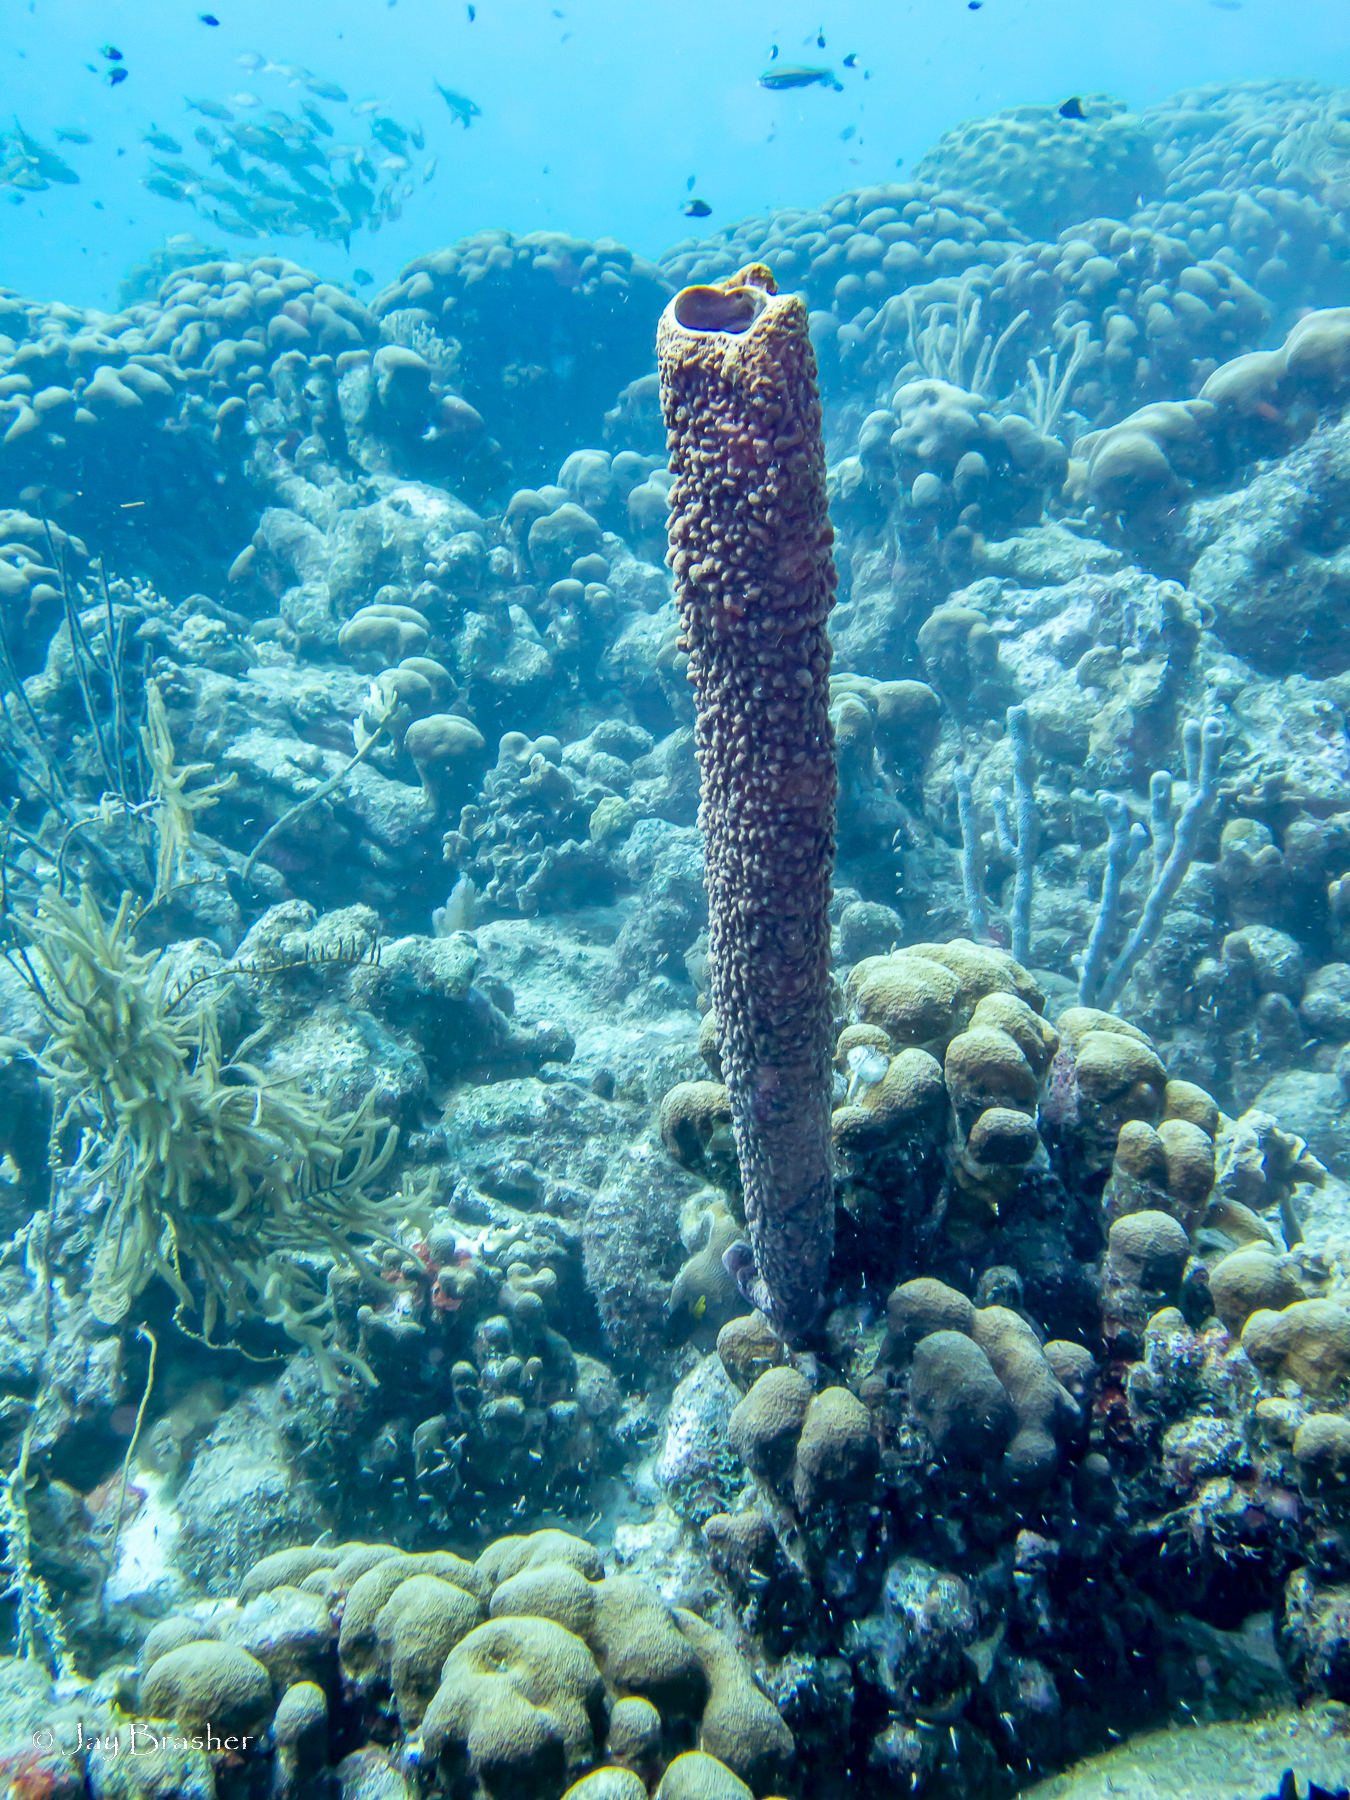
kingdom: Animalia
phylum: Cnidaria
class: Anthozoa
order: Scleractinia
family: Merulinidae
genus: Orbicella
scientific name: Orbicella annularis
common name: Boulder star coral
